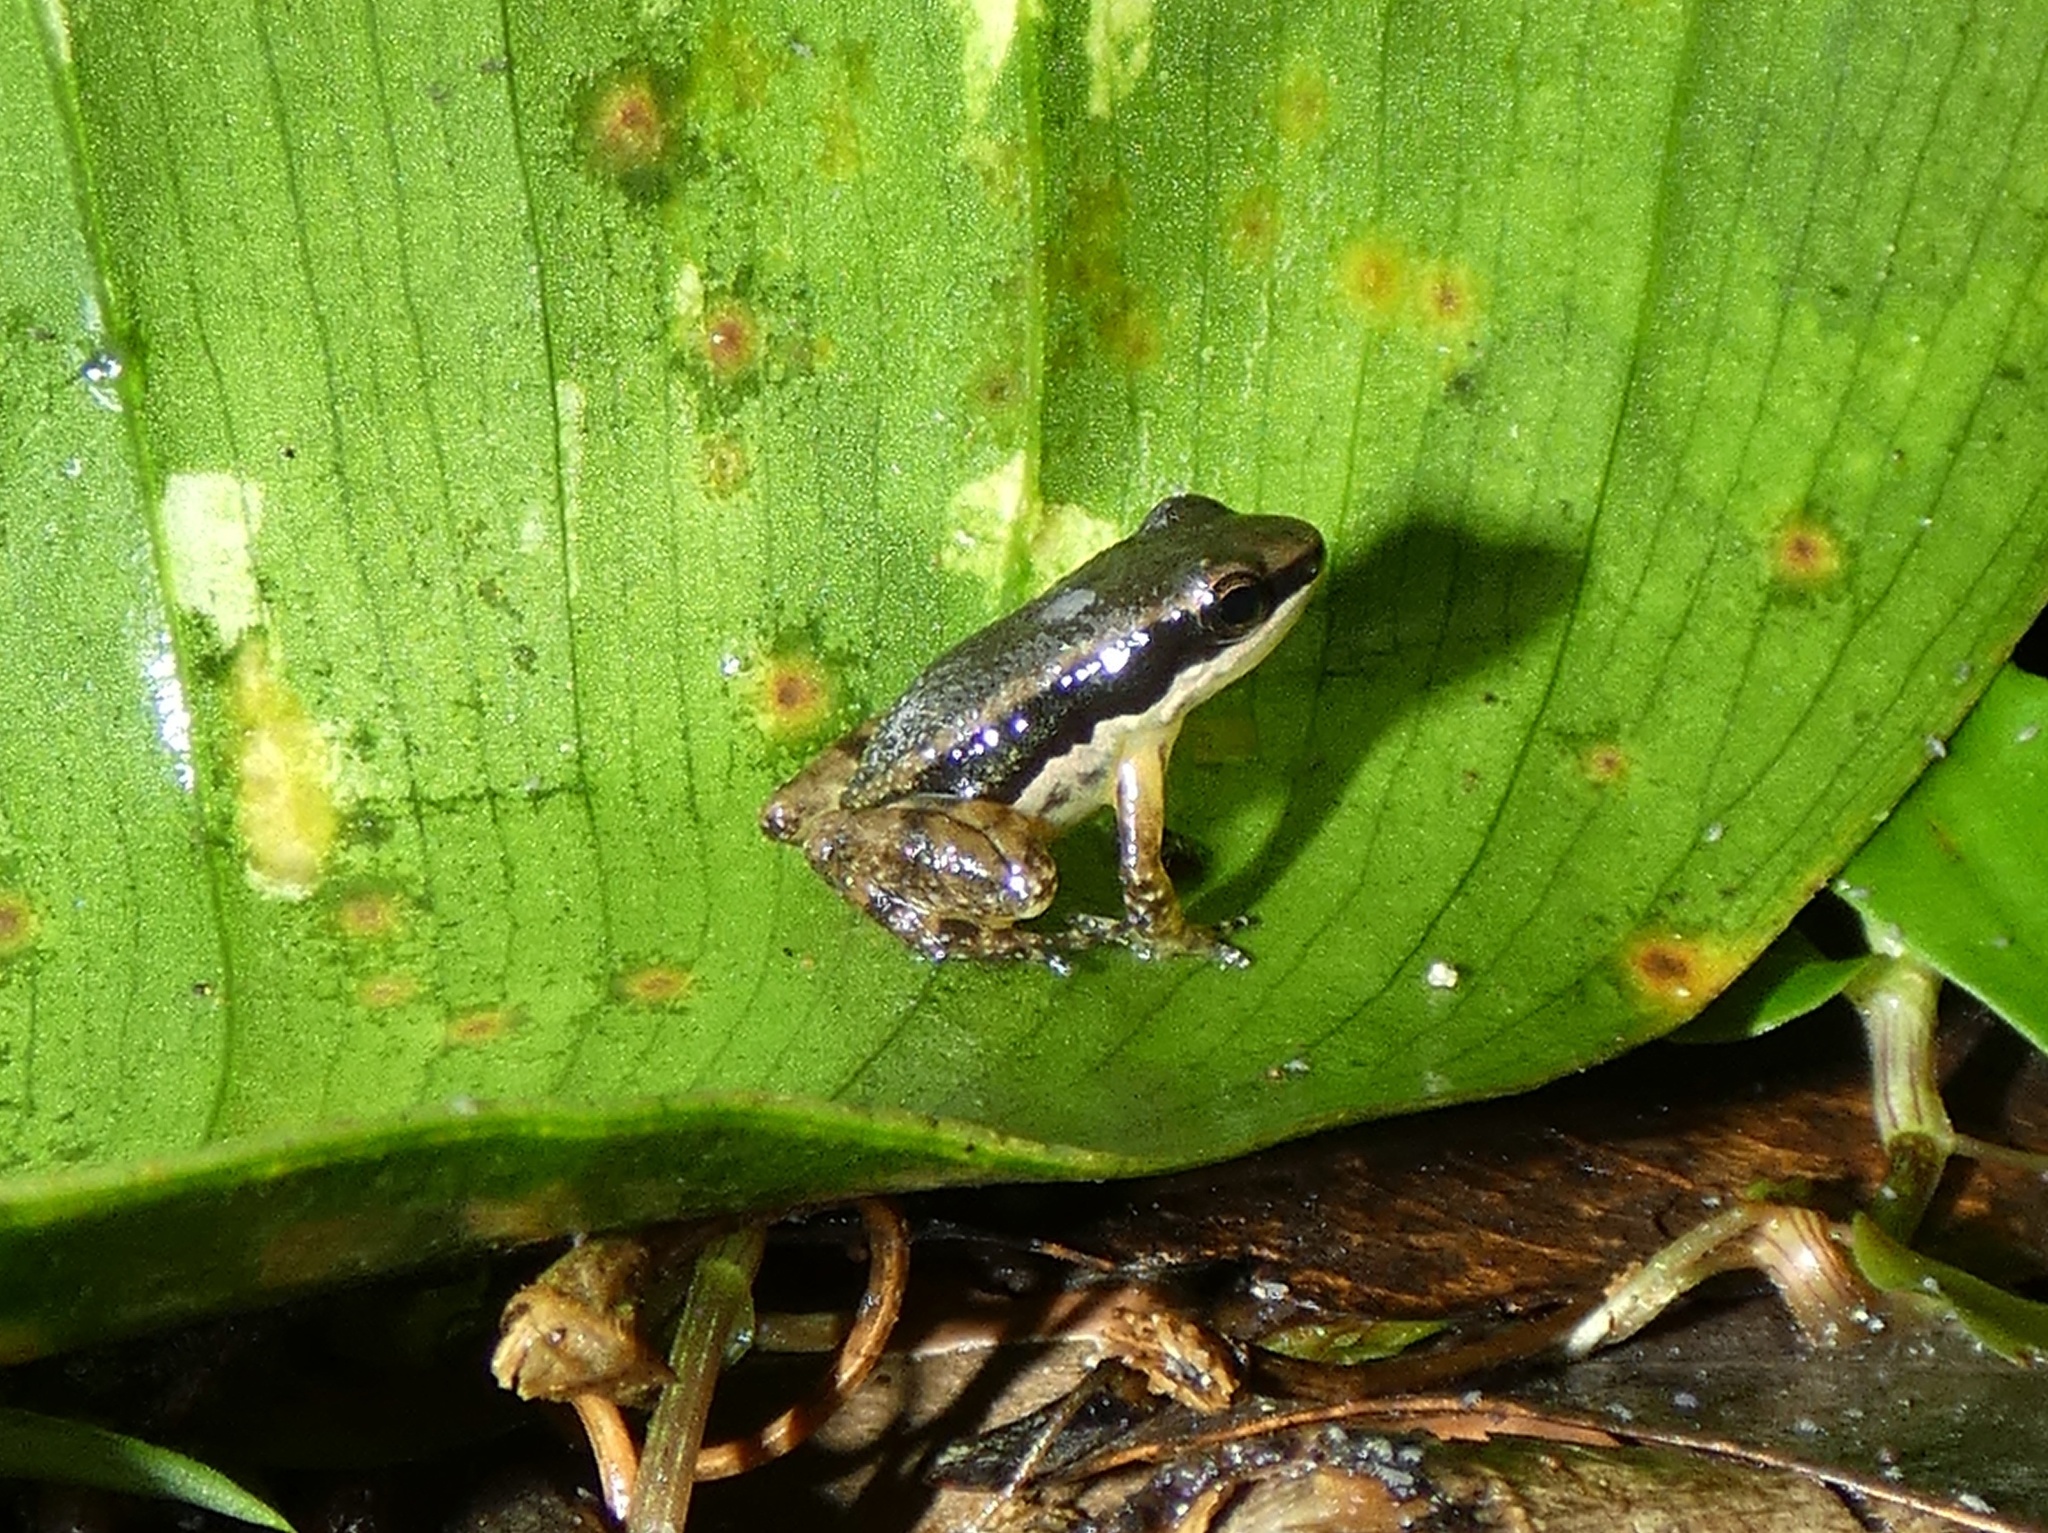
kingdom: Animalia
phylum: Chordata
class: Amphibia
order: Anura
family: Dendrobatidae
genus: Colostethus
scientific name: Colostethus pratti
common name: Pratt's rocket frog
